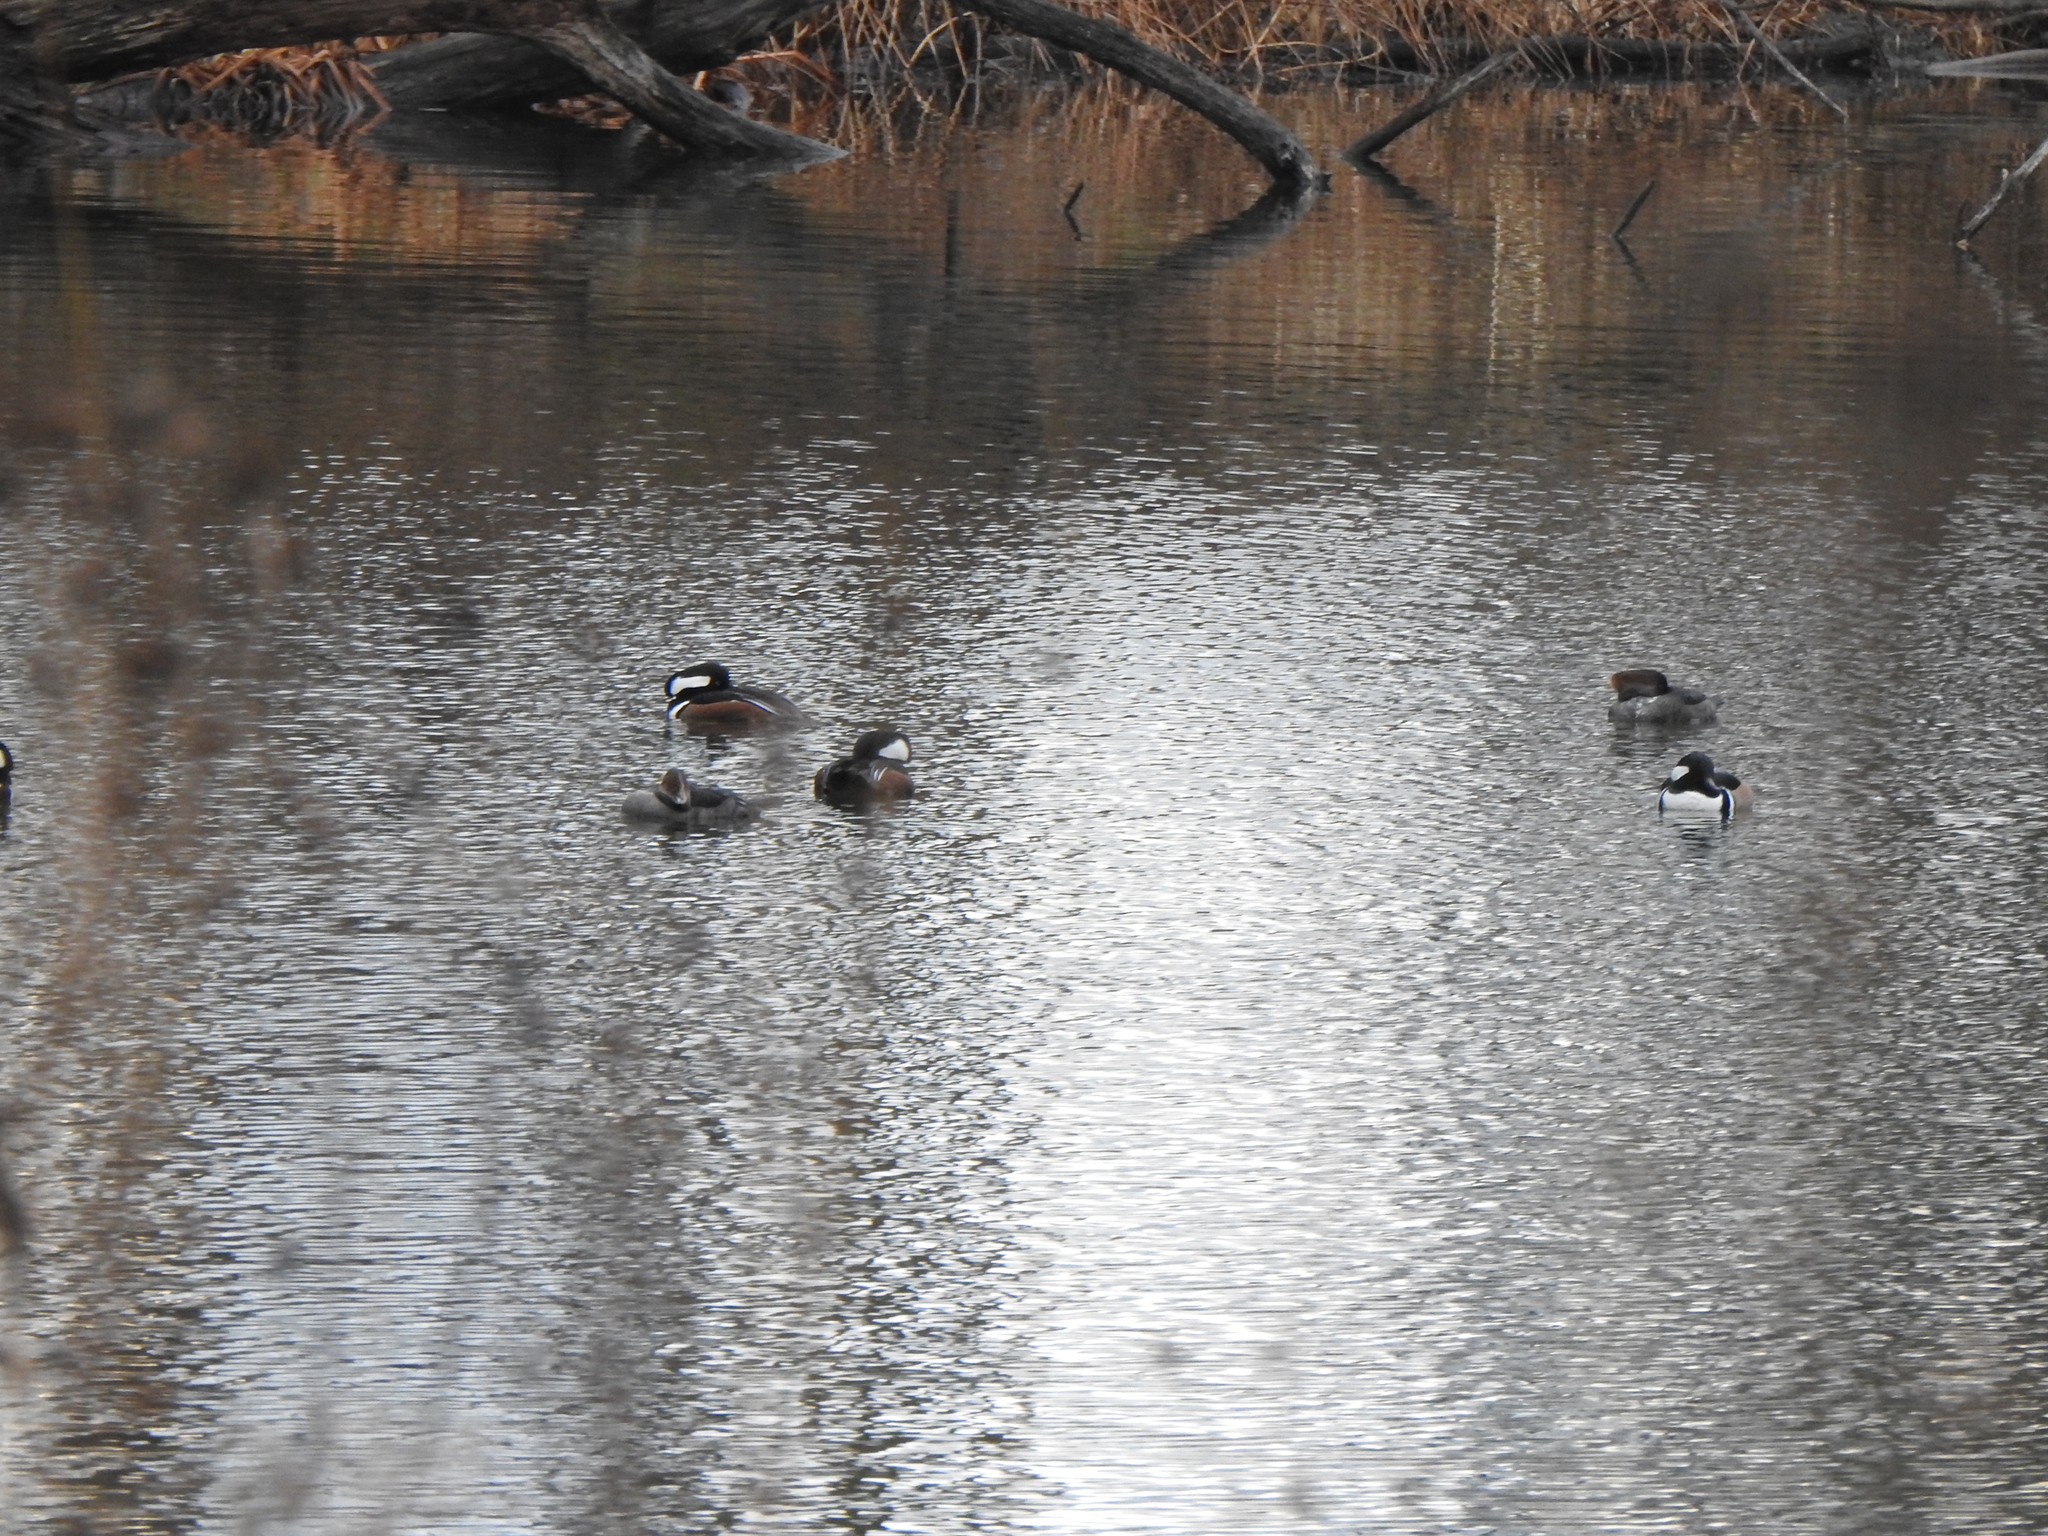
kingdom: Animalia
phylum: Chordata
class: Aves
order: Anseriformes
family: Anatidae
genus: Lophodytes
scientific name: Lophodytes cucullatus
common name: Hooded merganser
